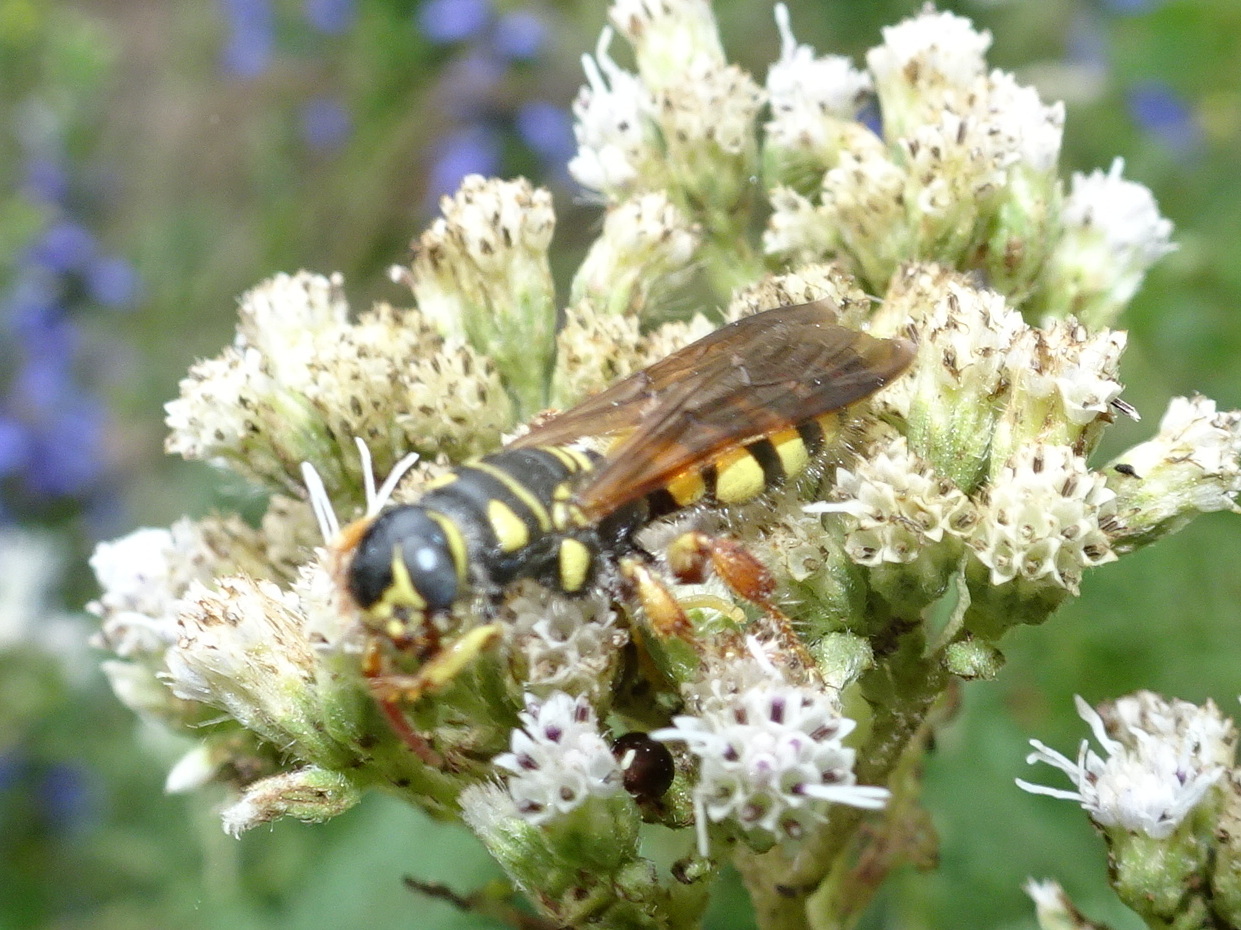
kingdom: Animalia
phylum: Arthropoda
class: Insecta
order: Hymenoptera
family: Tiphiidae
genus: Myzinum
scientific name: Myzinum quinquecinctum
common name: Five-banded thynnid wasp
